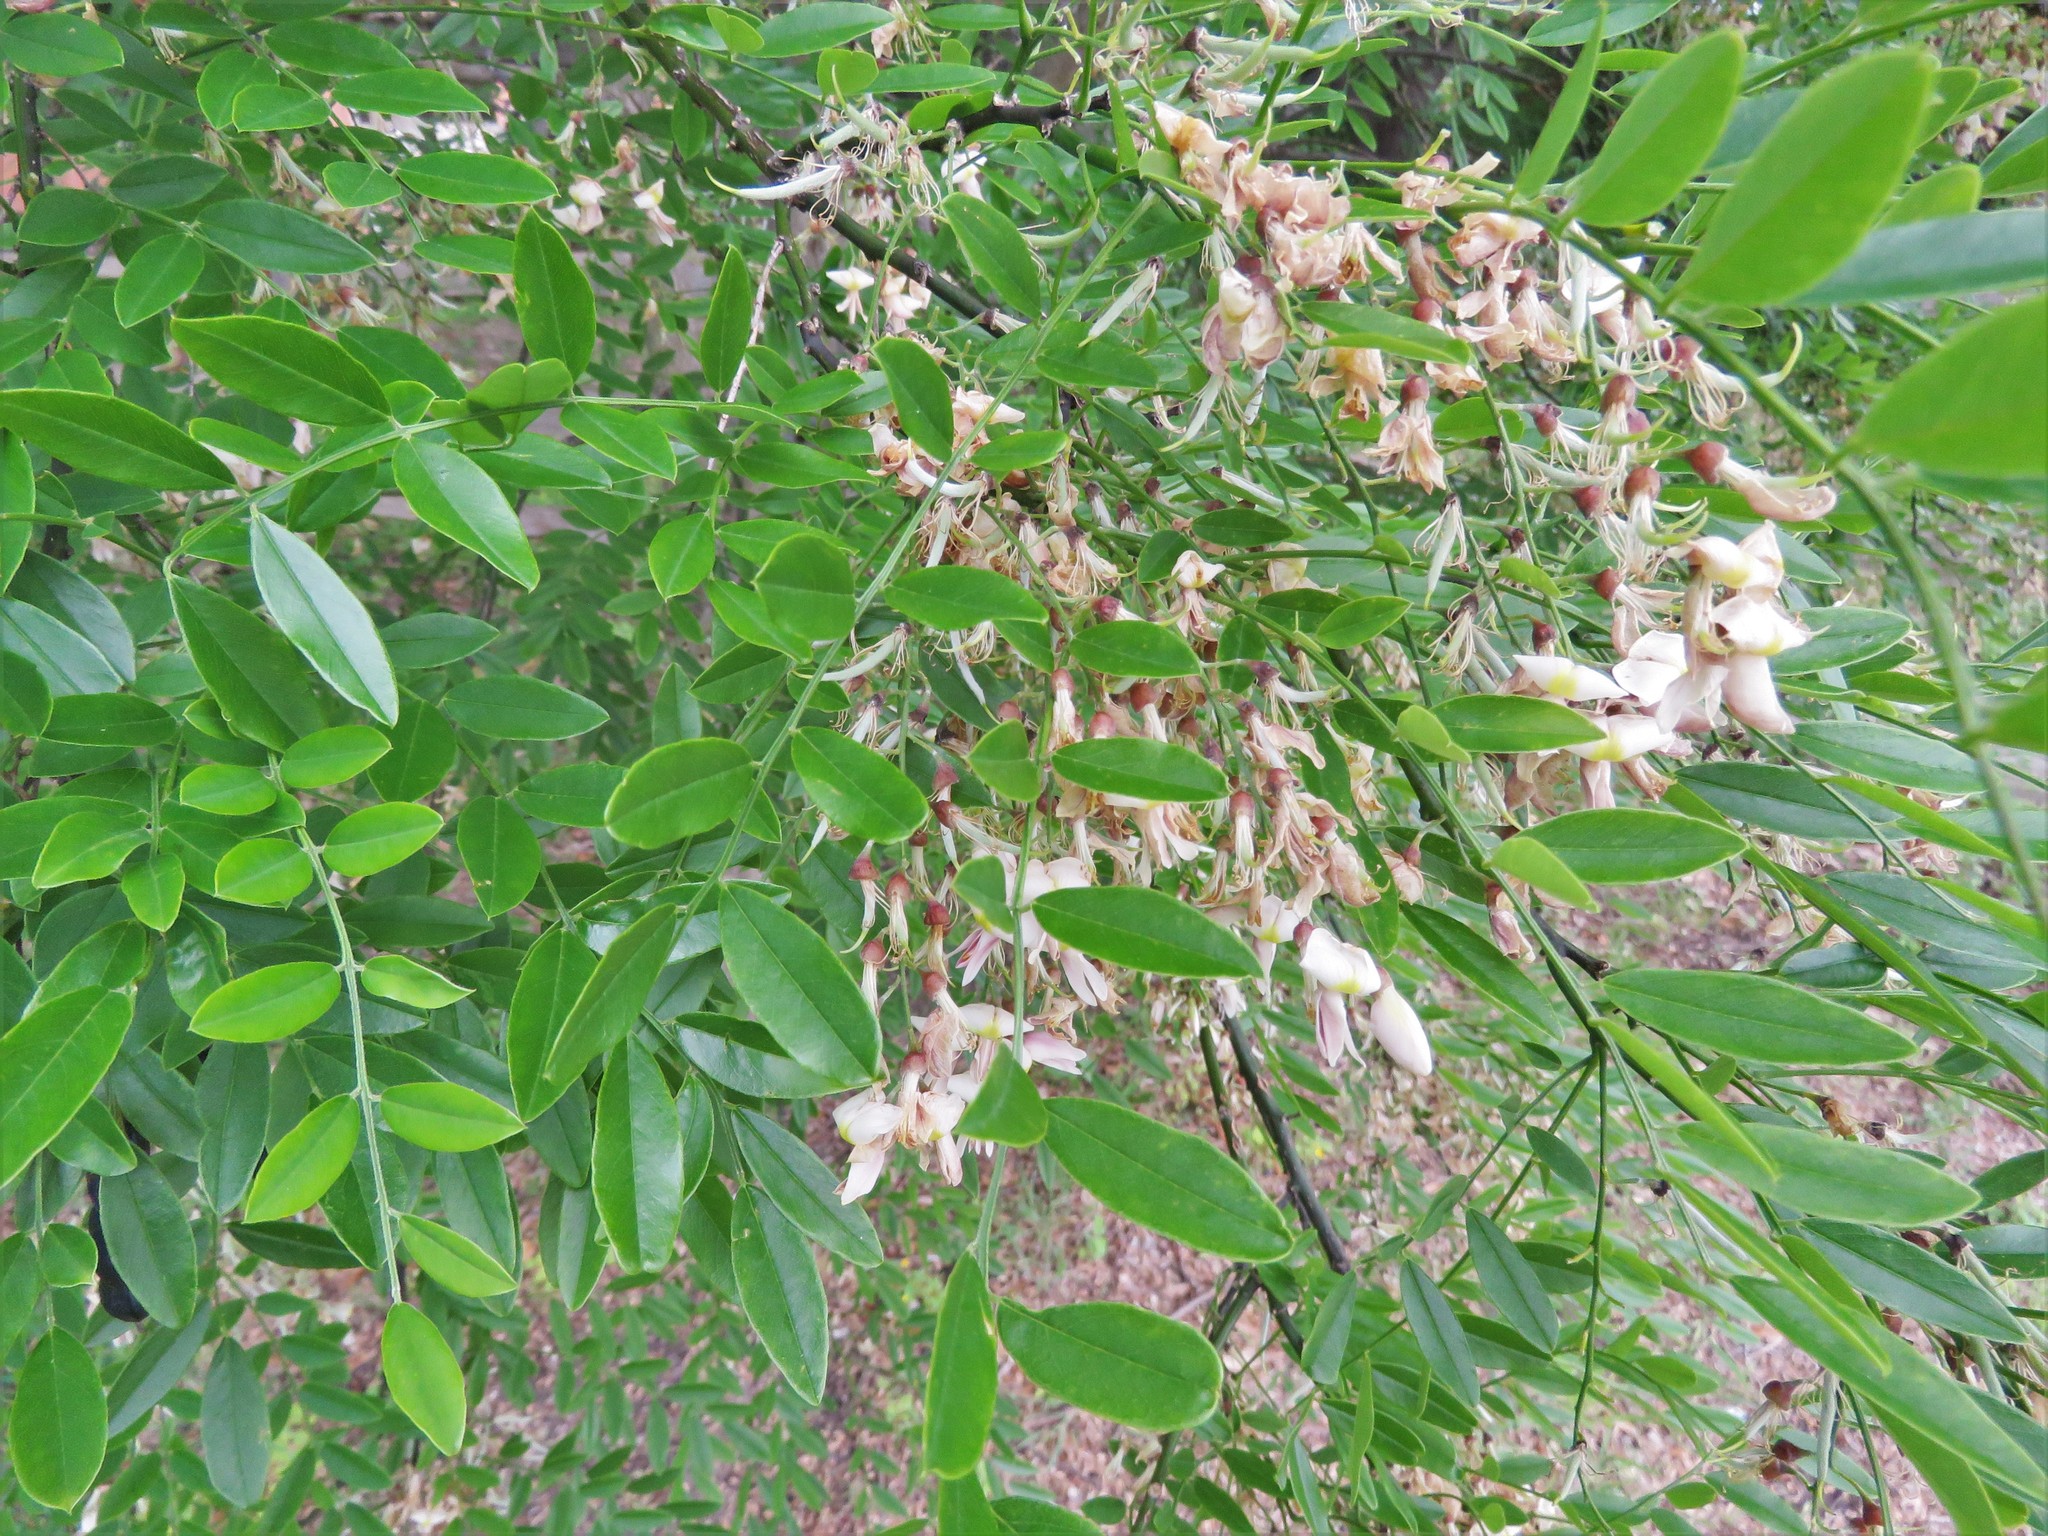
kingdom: Plantae
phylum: Tracheophyta
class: Magnoliopsida
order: Fabales
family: Fabaceae
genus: Styphnolobium
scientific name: Styphnolobium affine
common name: Texas sophora
